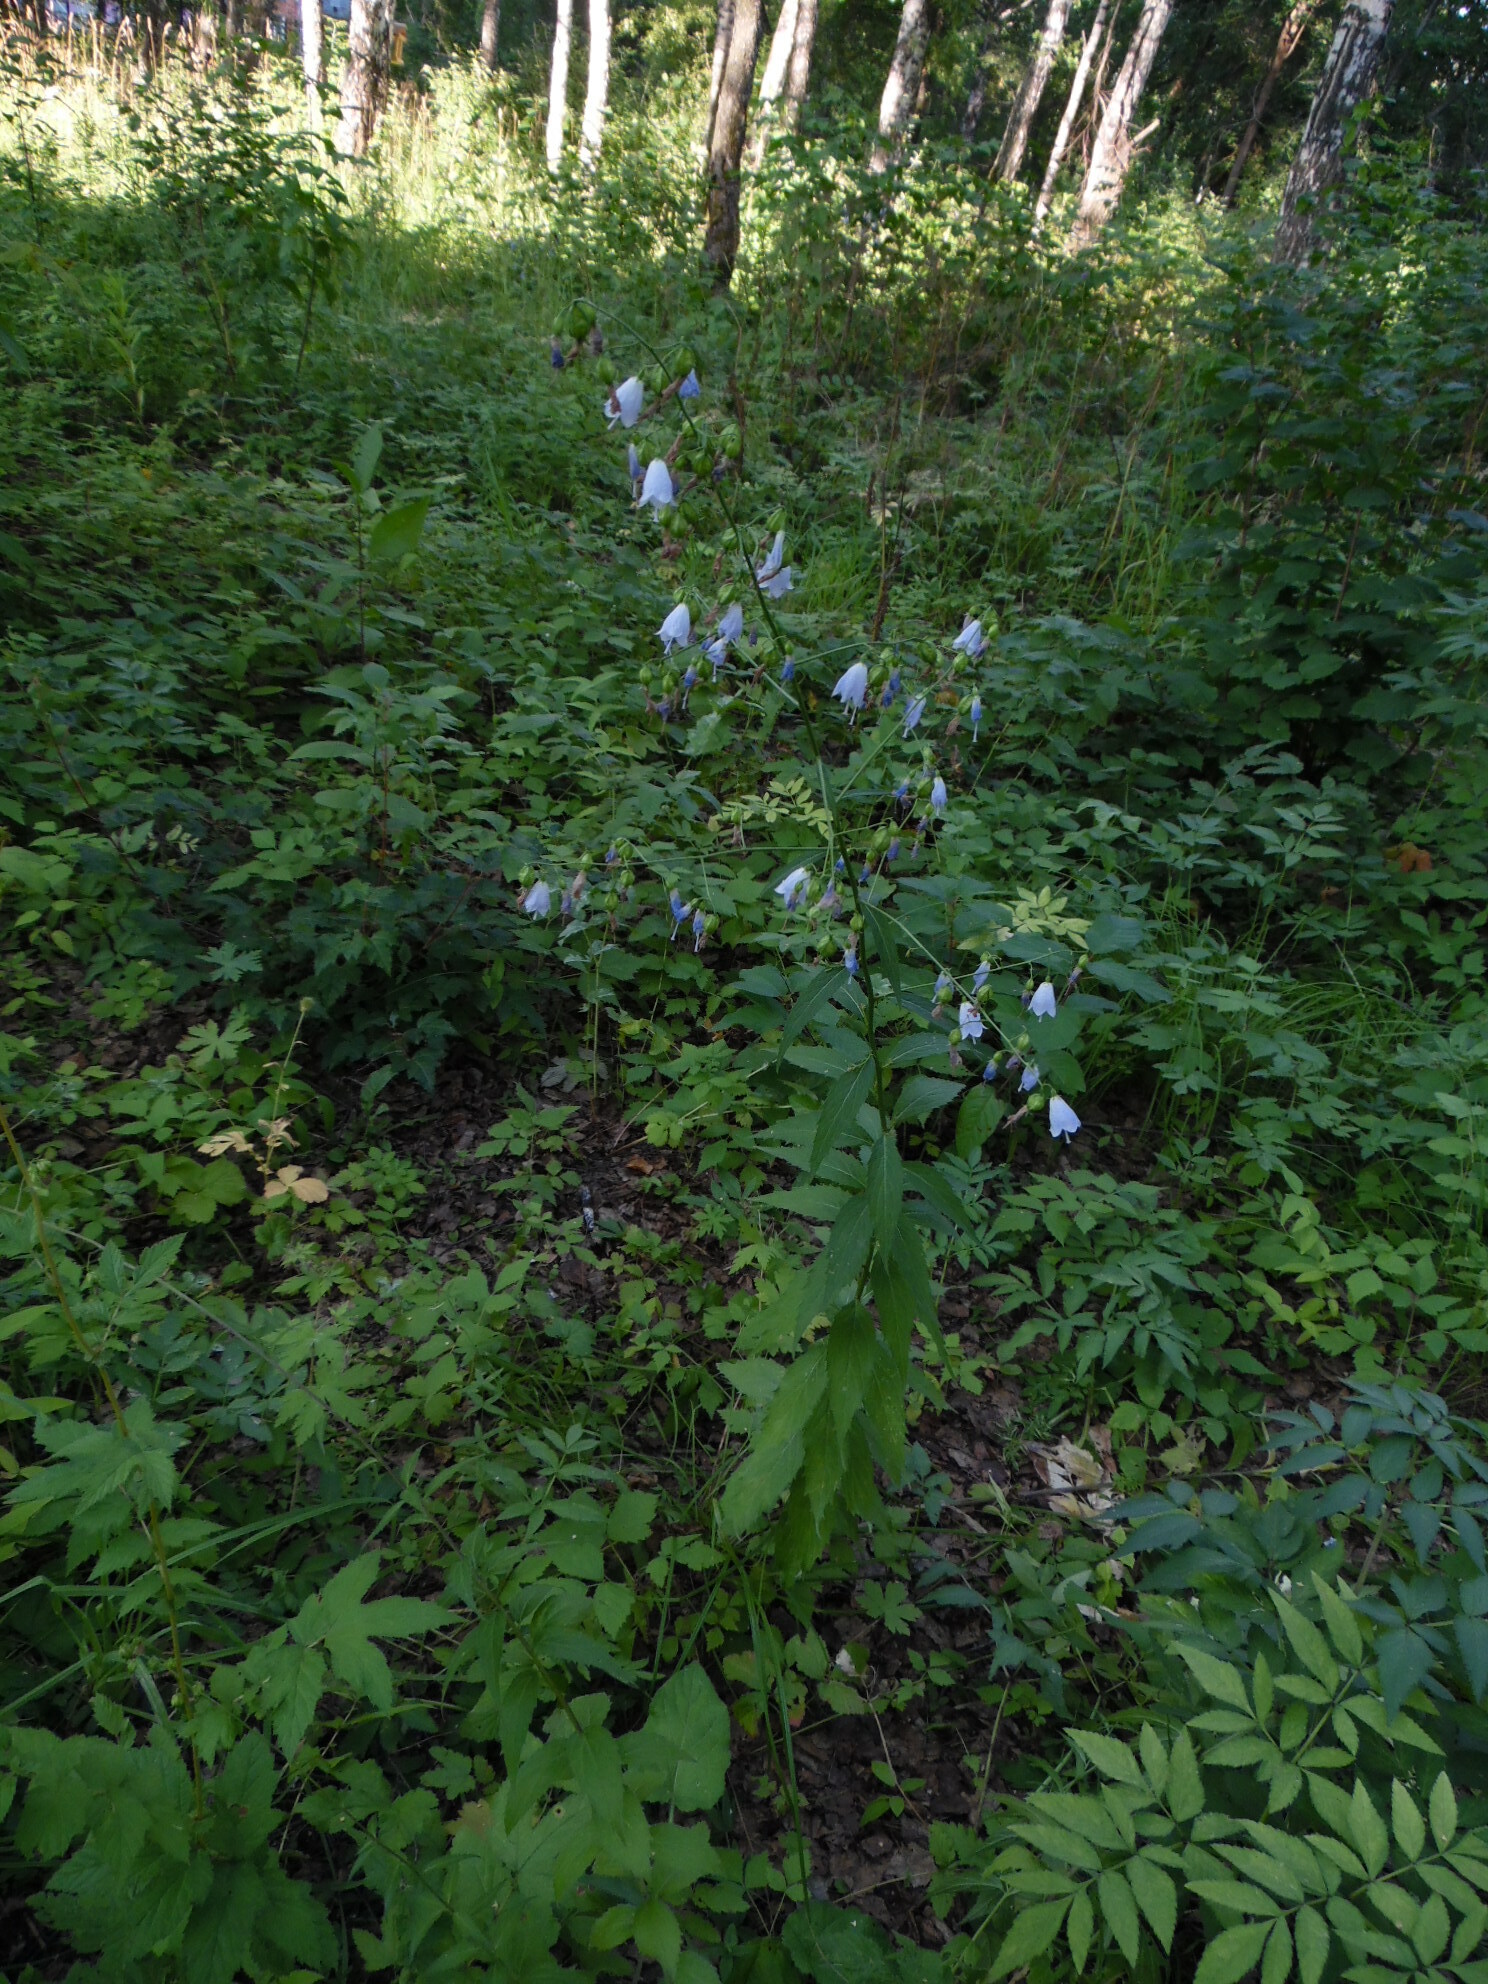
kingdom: Plantae
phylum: Tracheophyta
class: Magnoliopsida
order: Asterales
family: Campanulaceae
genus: Adenophora
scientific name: Adenophora liliifolia
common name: Lilyleaf ladybells
